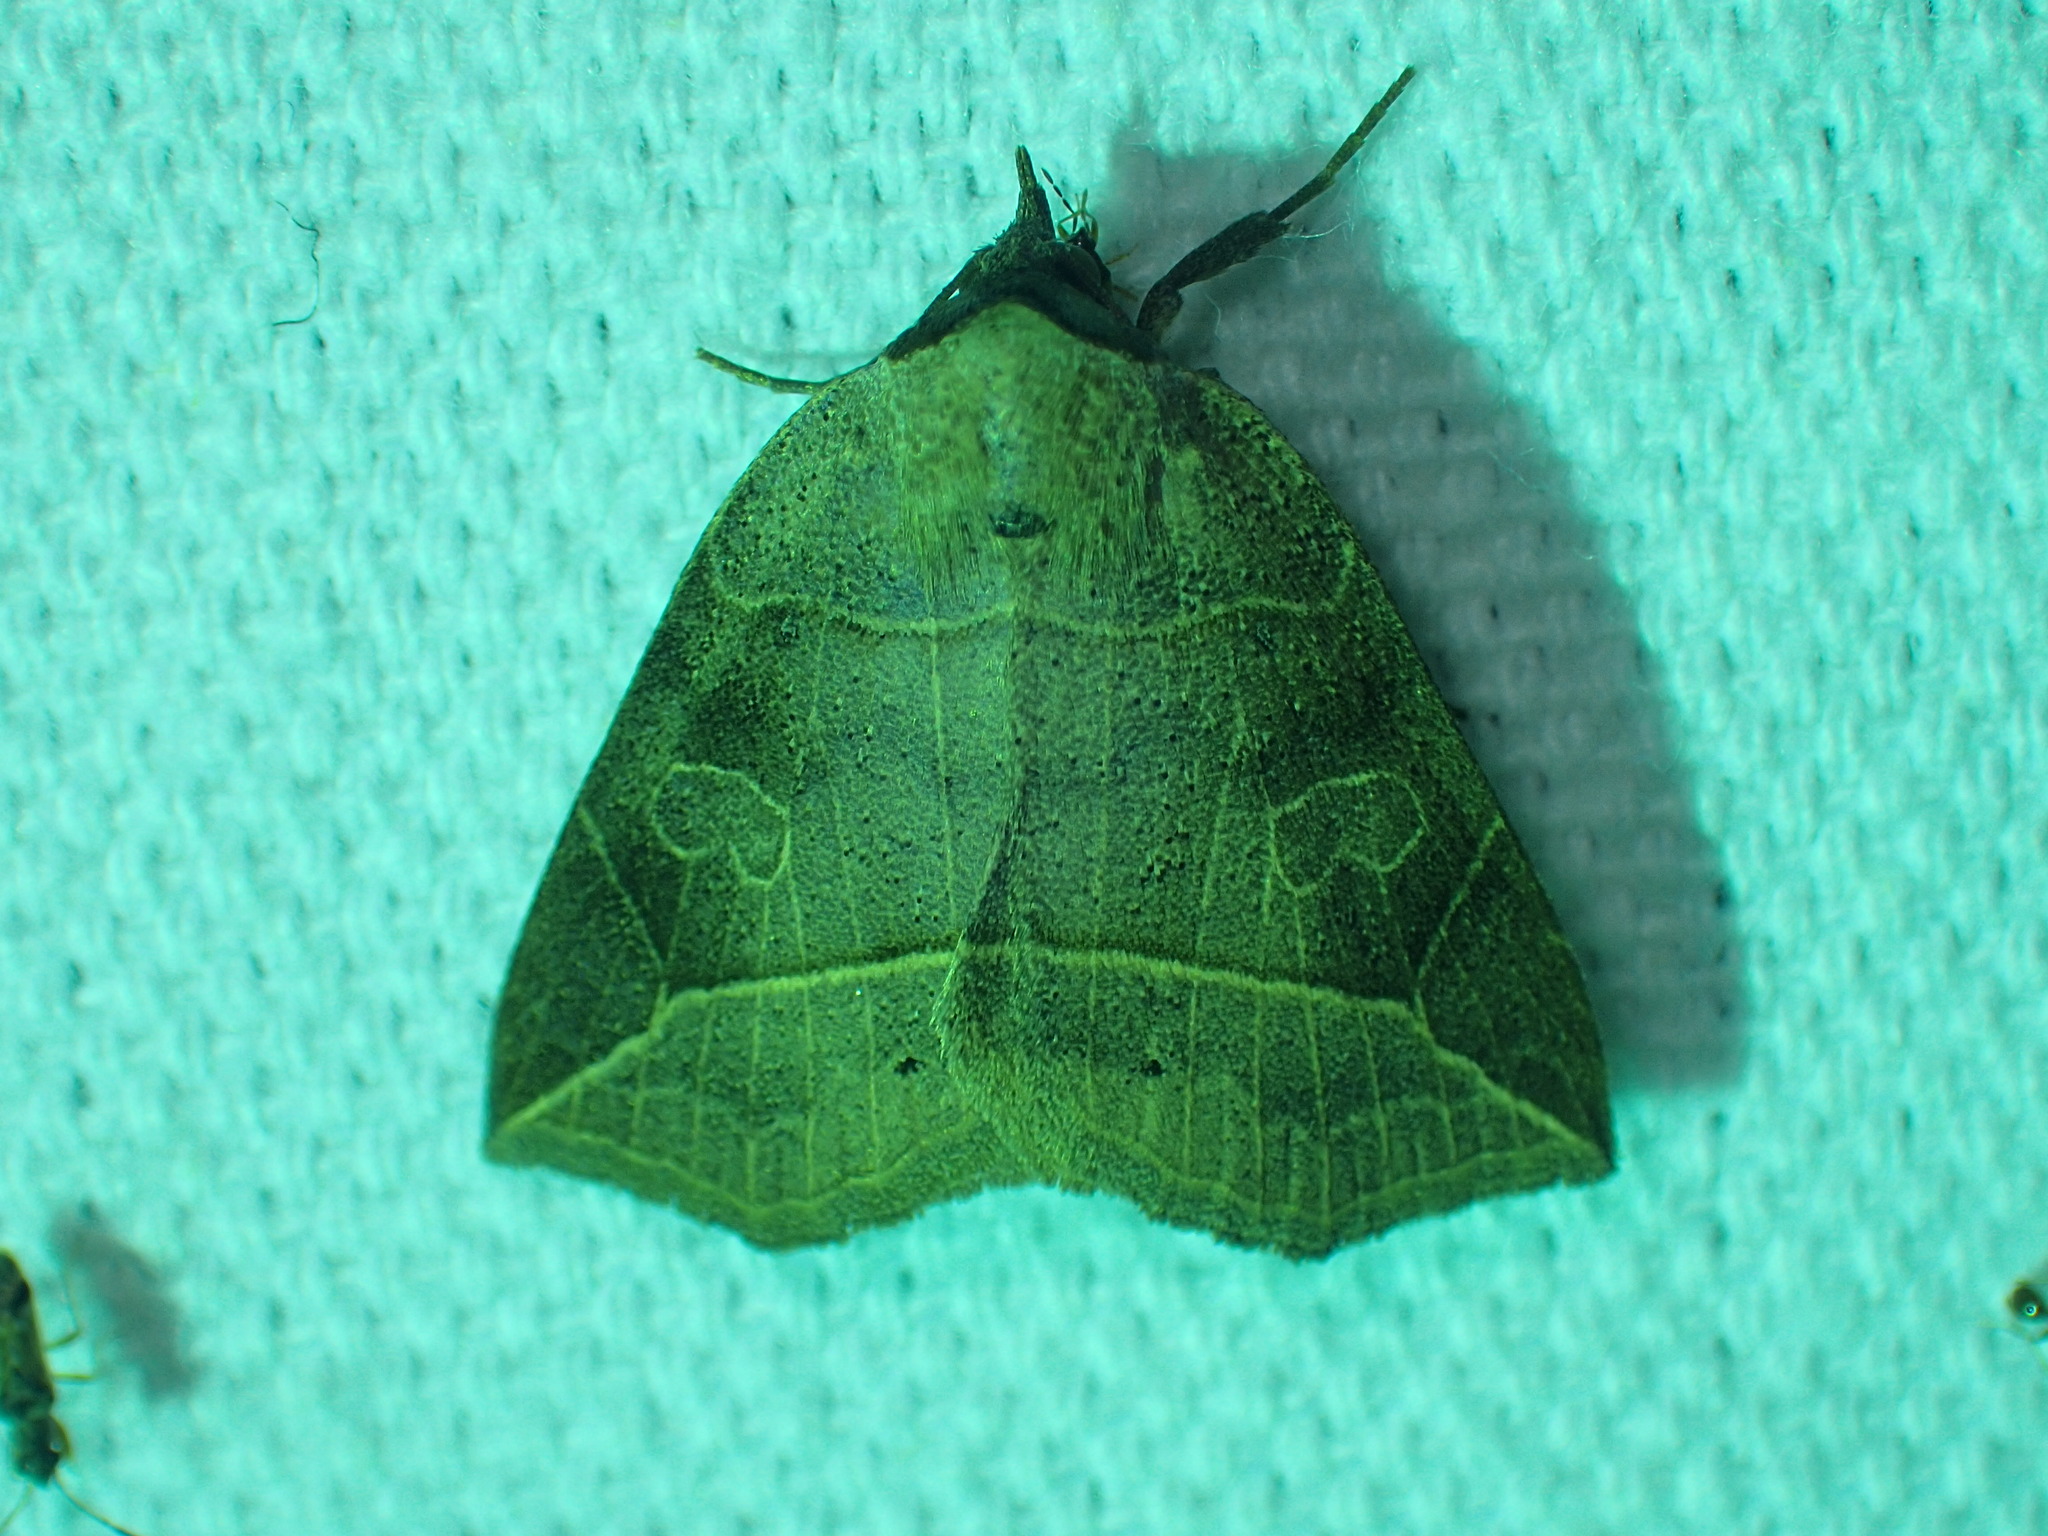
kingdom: Animalia
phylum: Arthropoda
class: Insecta
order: Lepidoptera
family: Erebidae
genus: Isogona
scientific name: Isogona tenuis
